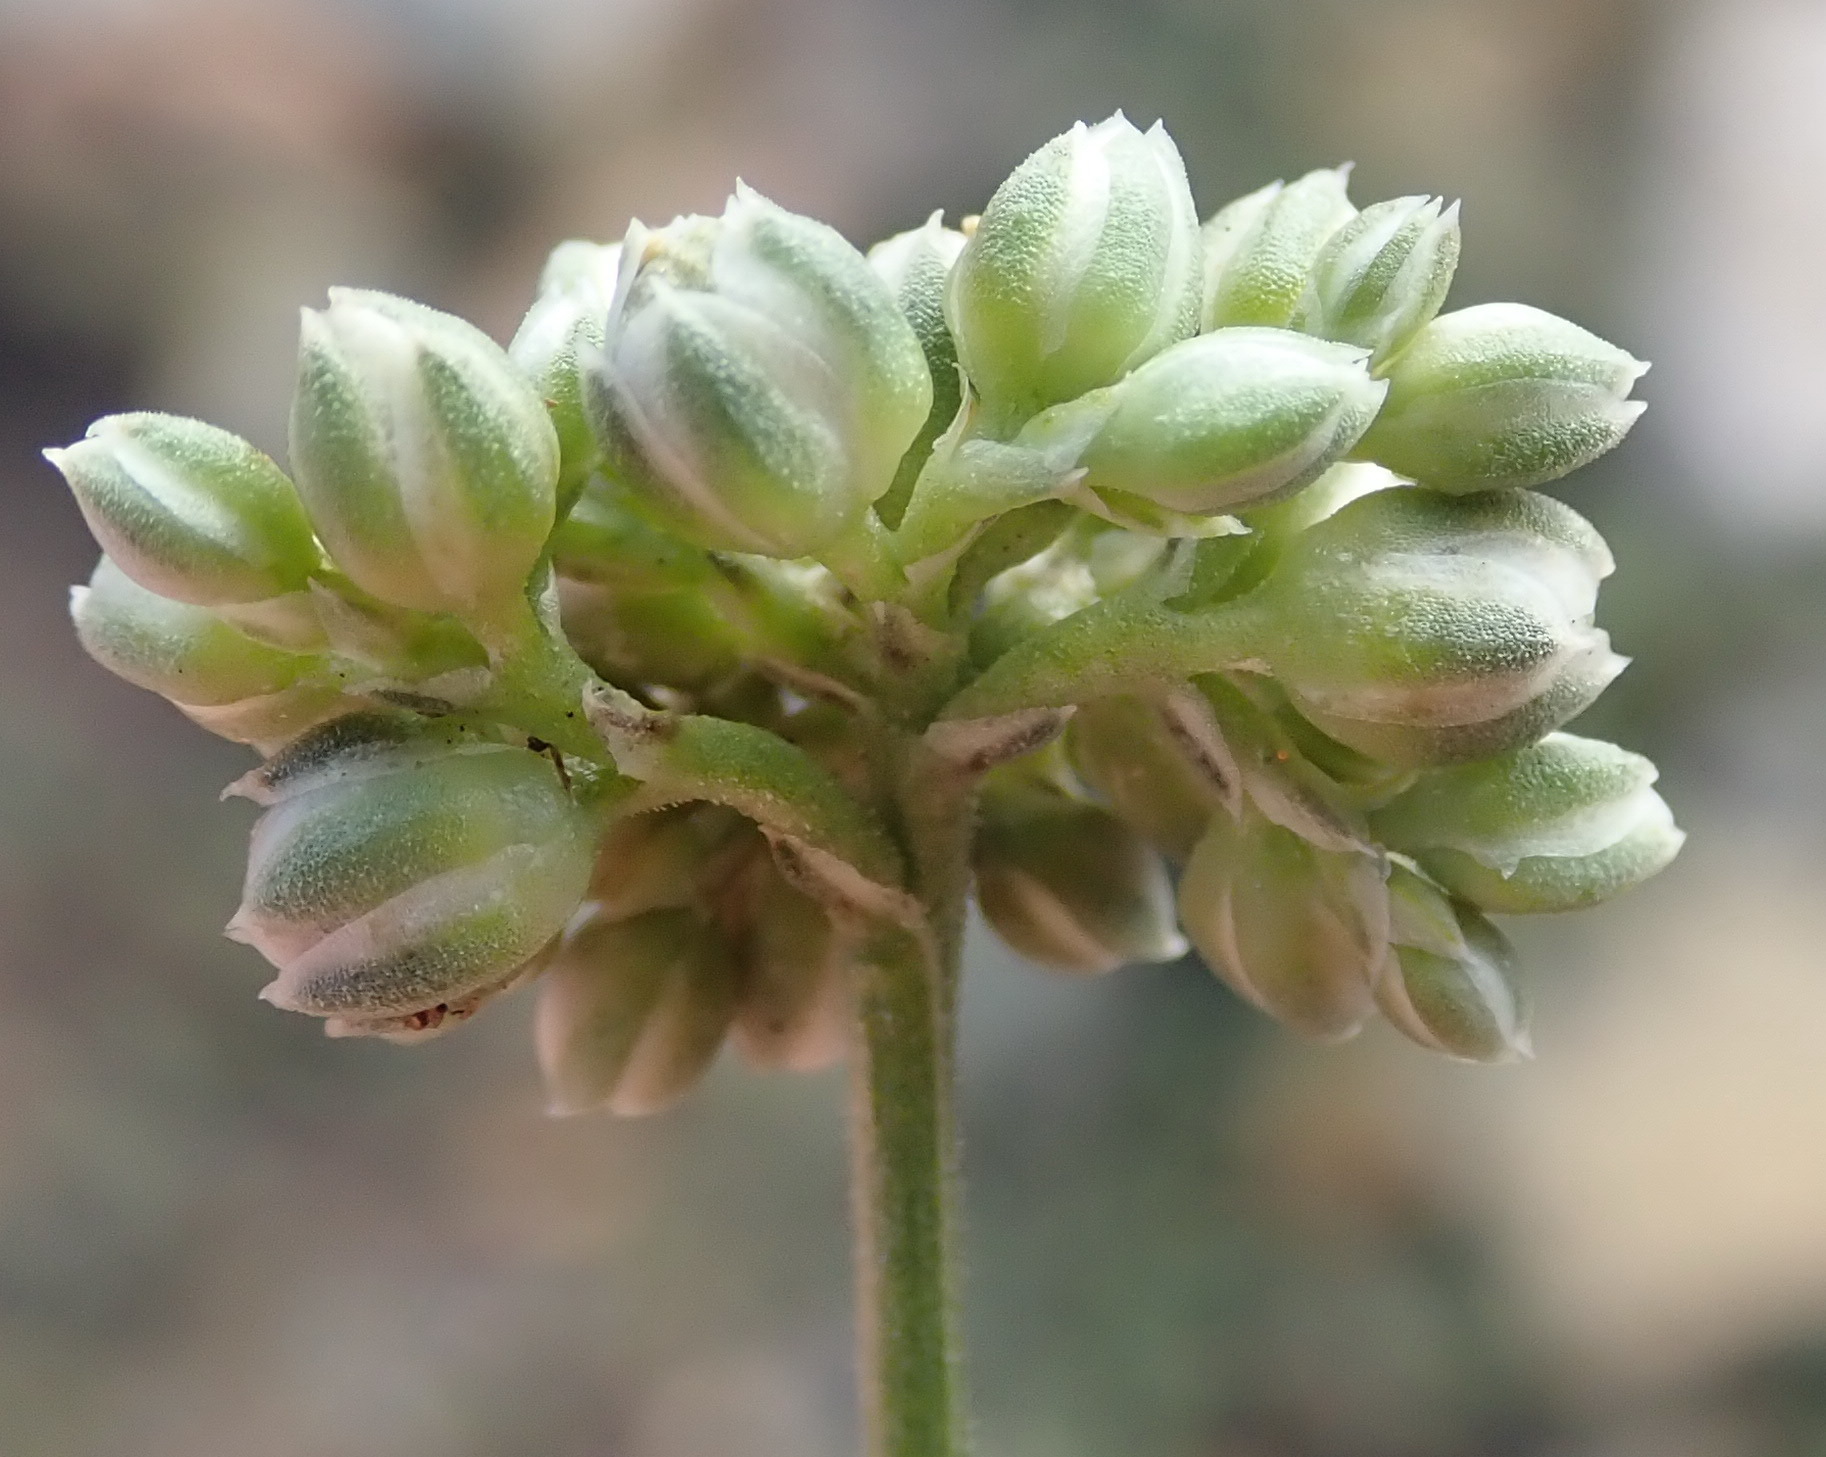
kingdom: Plantae
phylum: Tracheophyta
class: Magnoliopsida
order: Caryophyllales
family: Limeaceae
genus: Limeum
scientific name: Limeum telephioides
